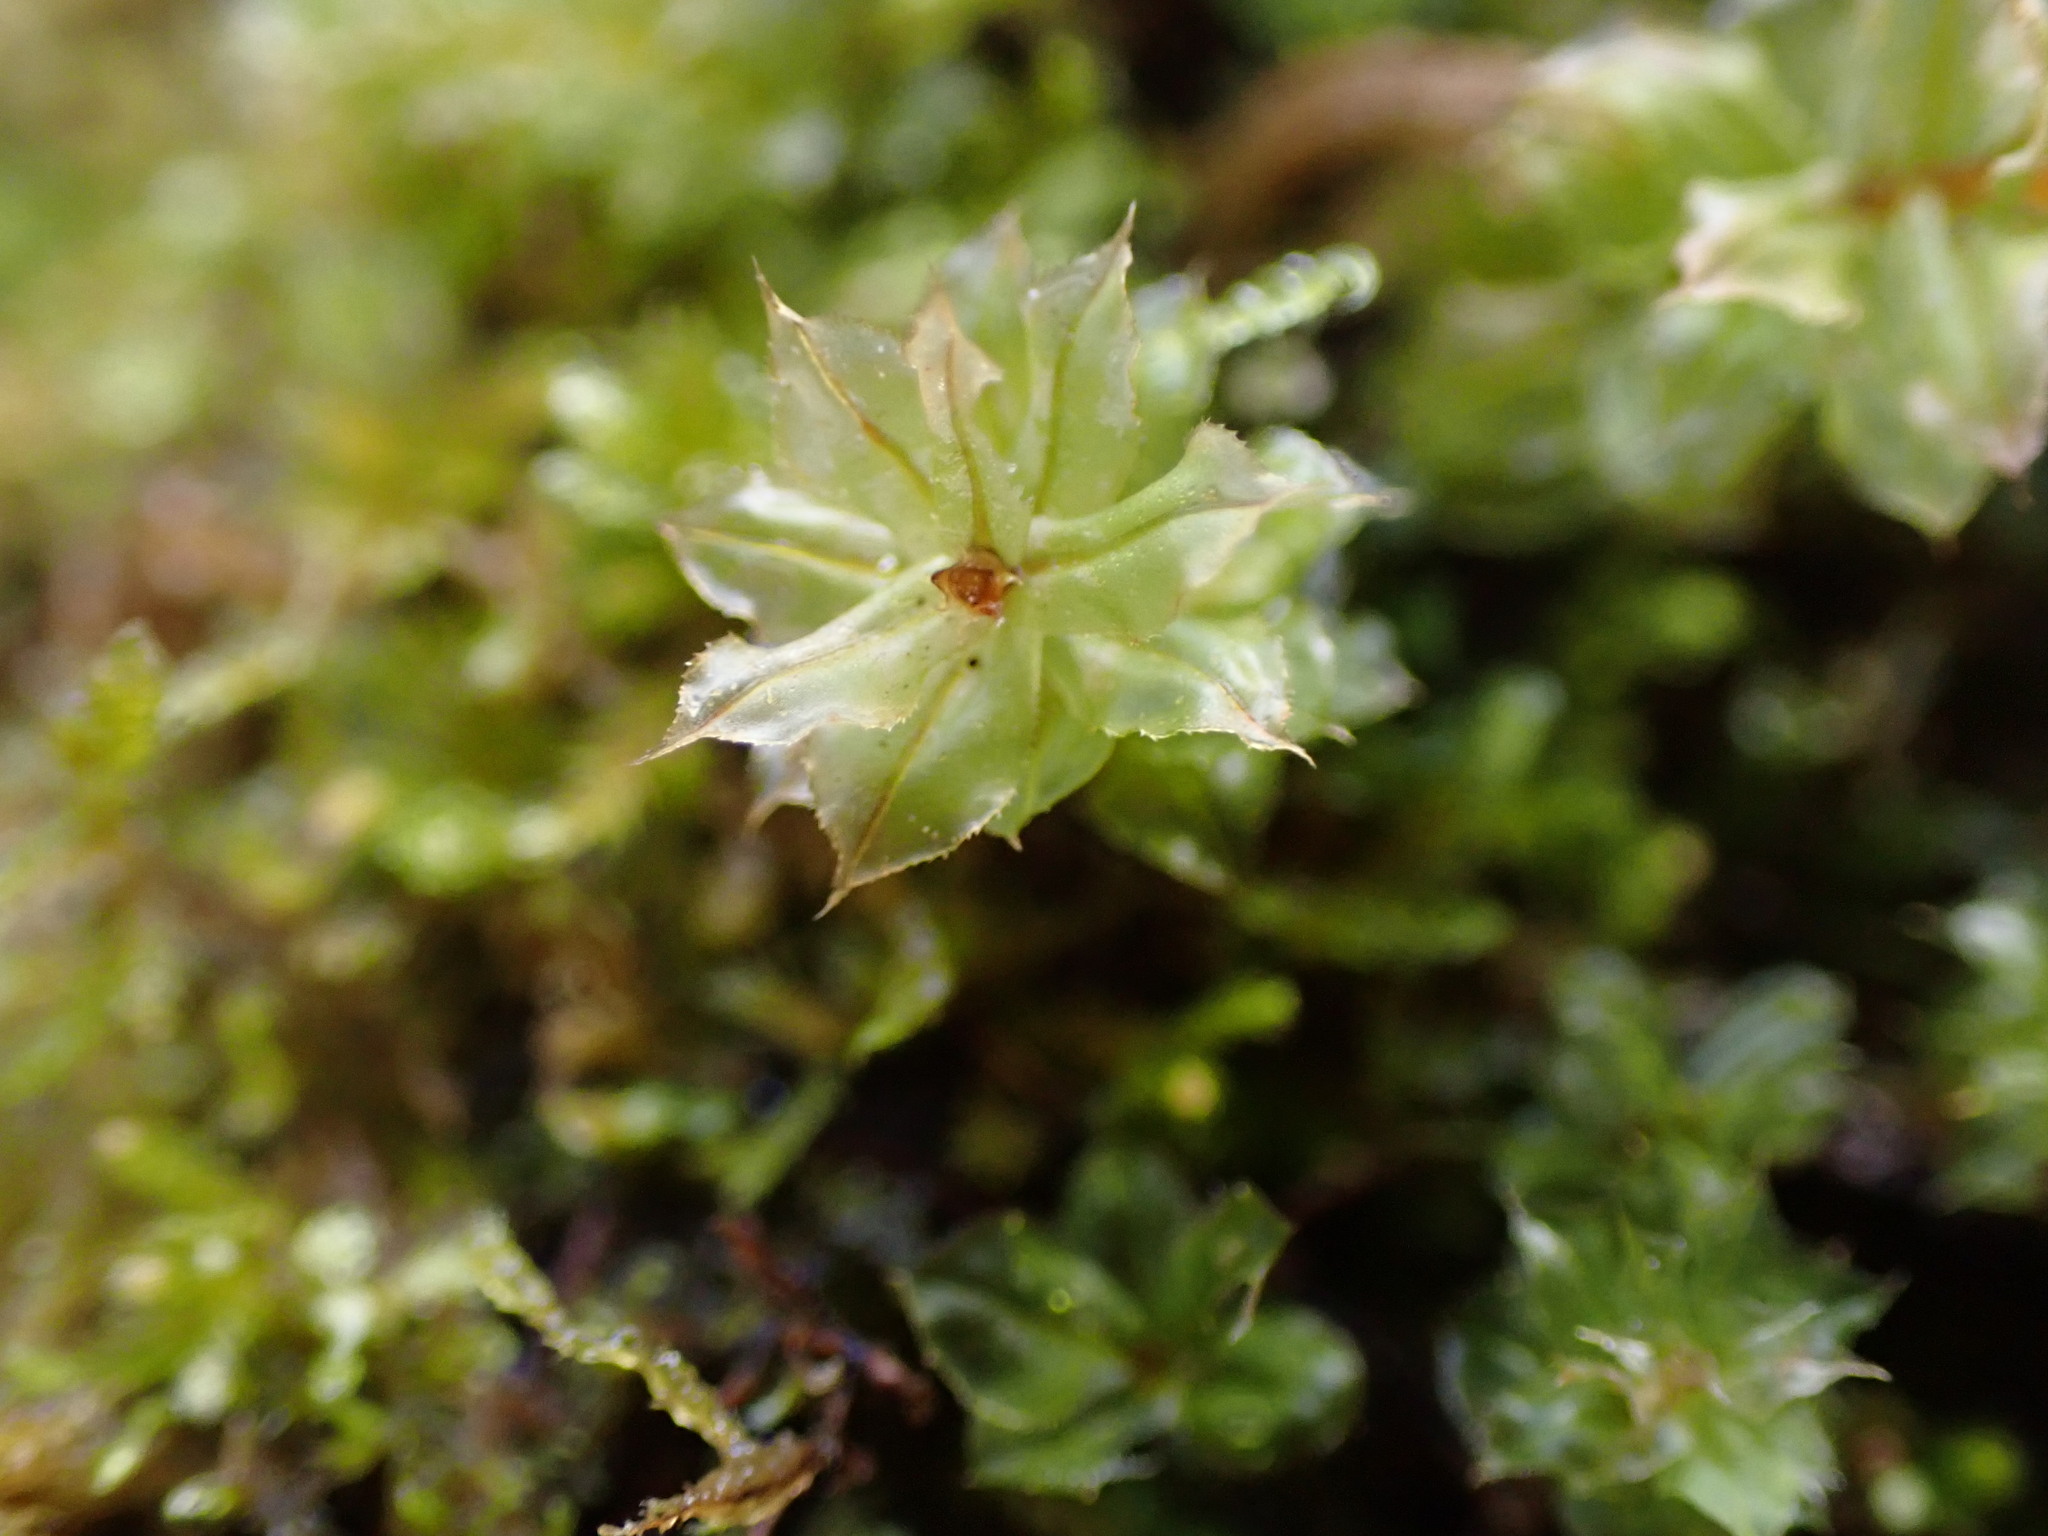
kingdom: Plantae
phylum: Bryophyta
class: Bryopsida
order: Bryales
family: Mniaceae
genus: Plagiomnium
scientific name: Plagiomnium venustum
